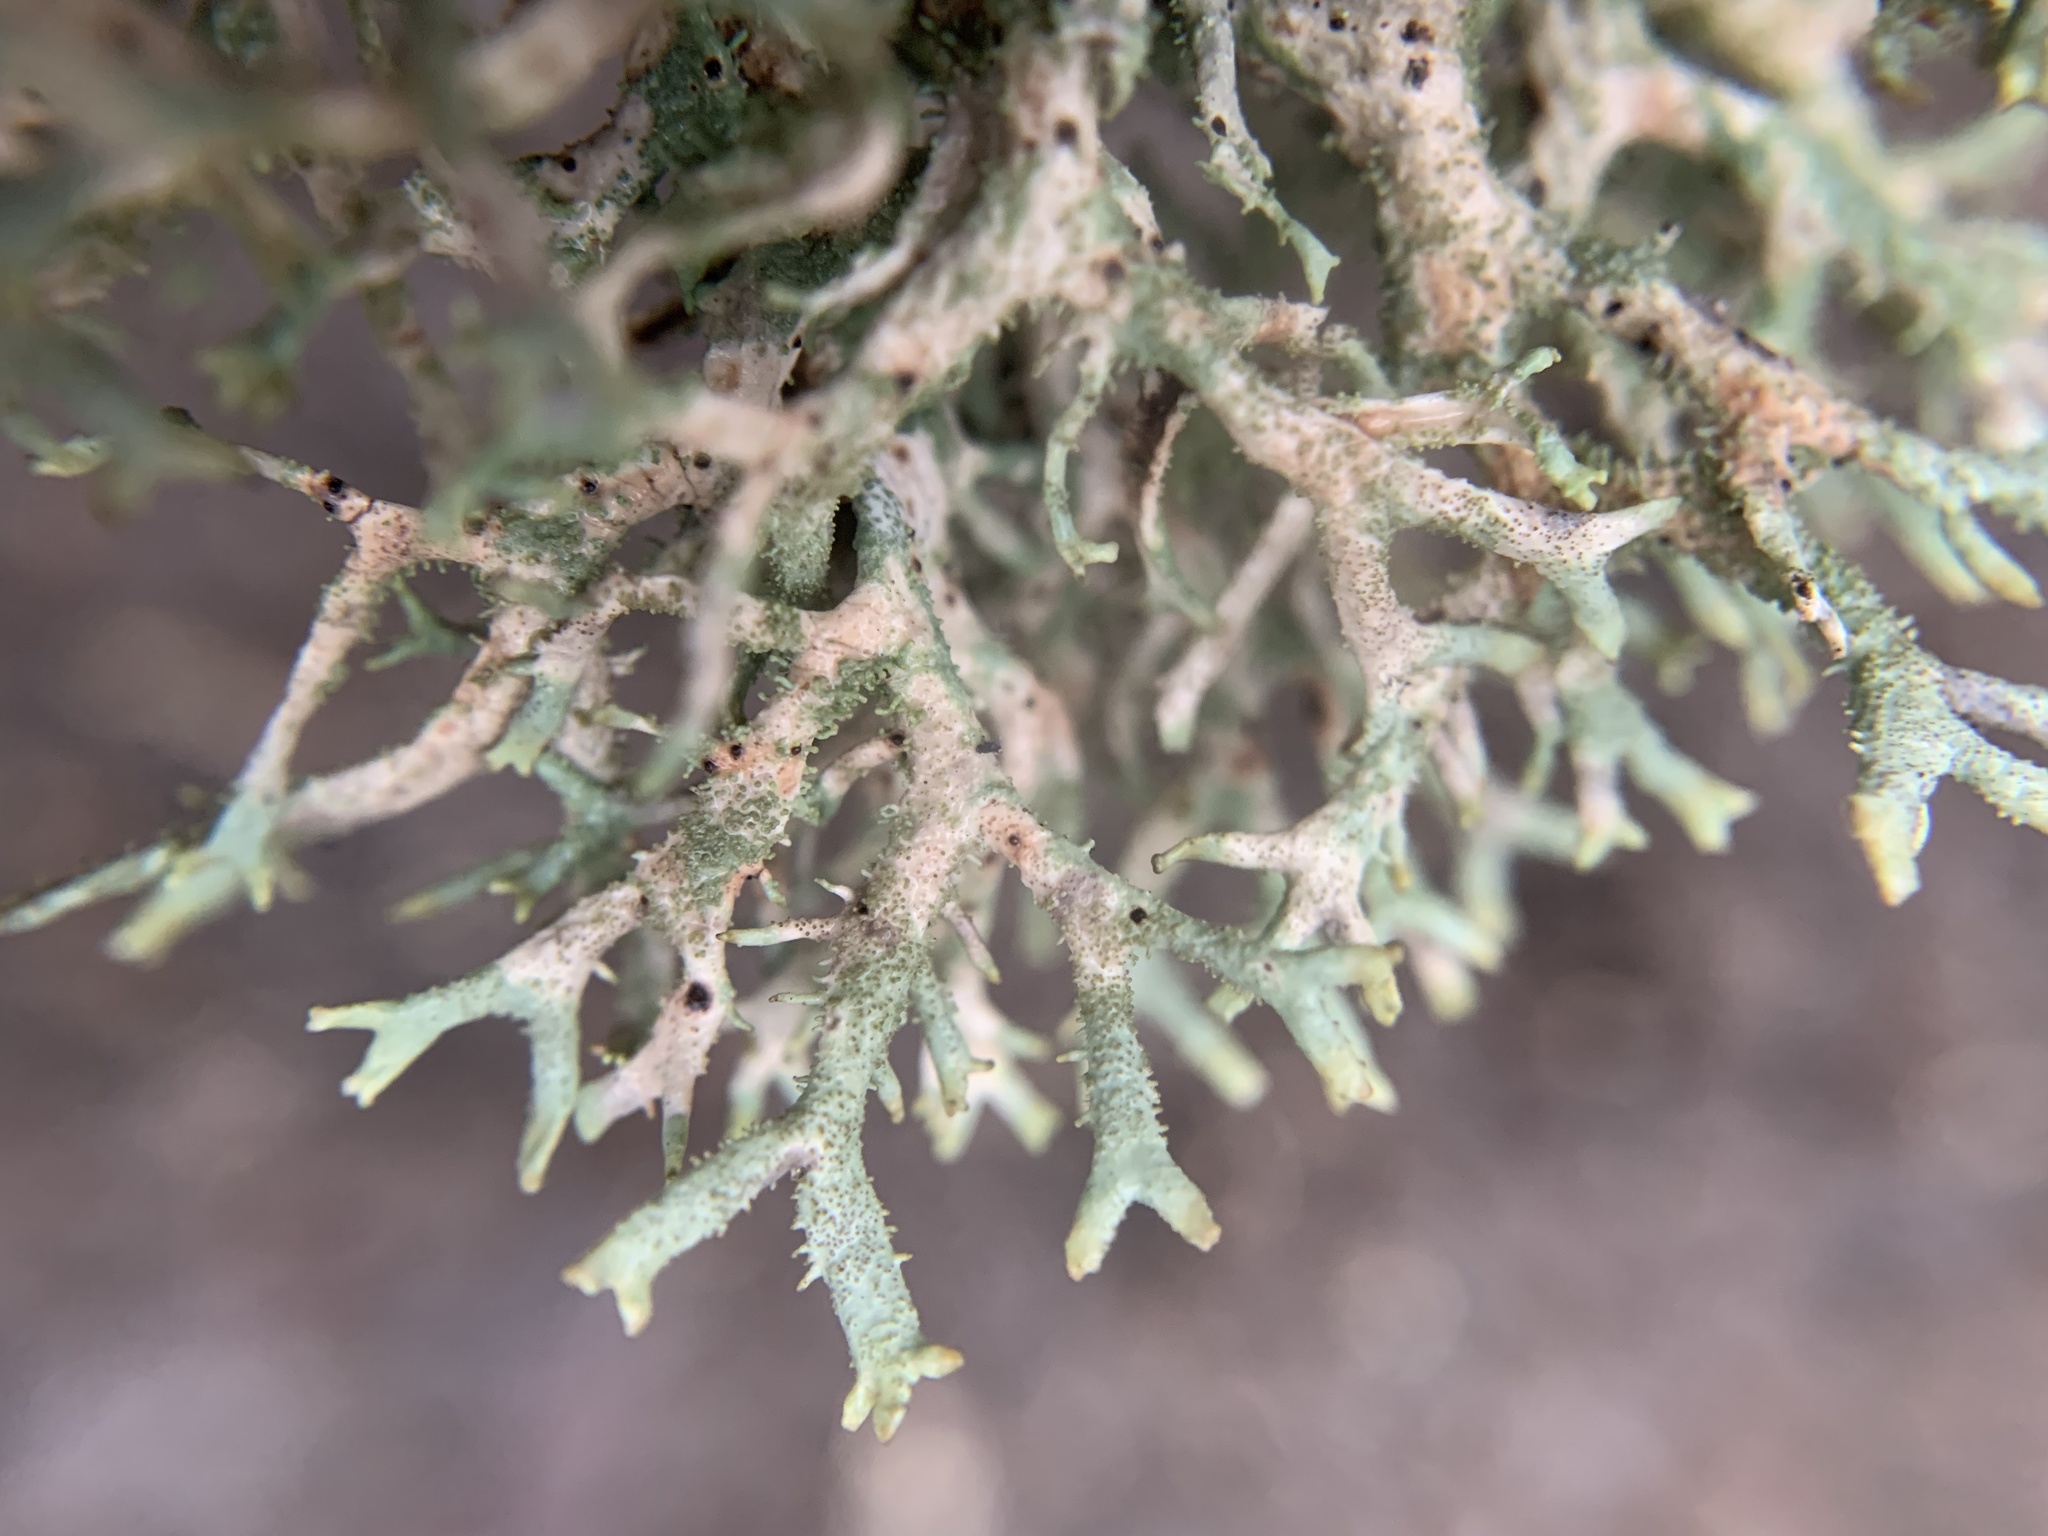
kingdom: Fungi
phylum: Ascomycota
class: Lecanoromycetes
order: Lecanorales
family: Parmeliaceae
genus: Pseudevernia
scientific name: Pseudevernia furfuracea
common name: Tree moss
